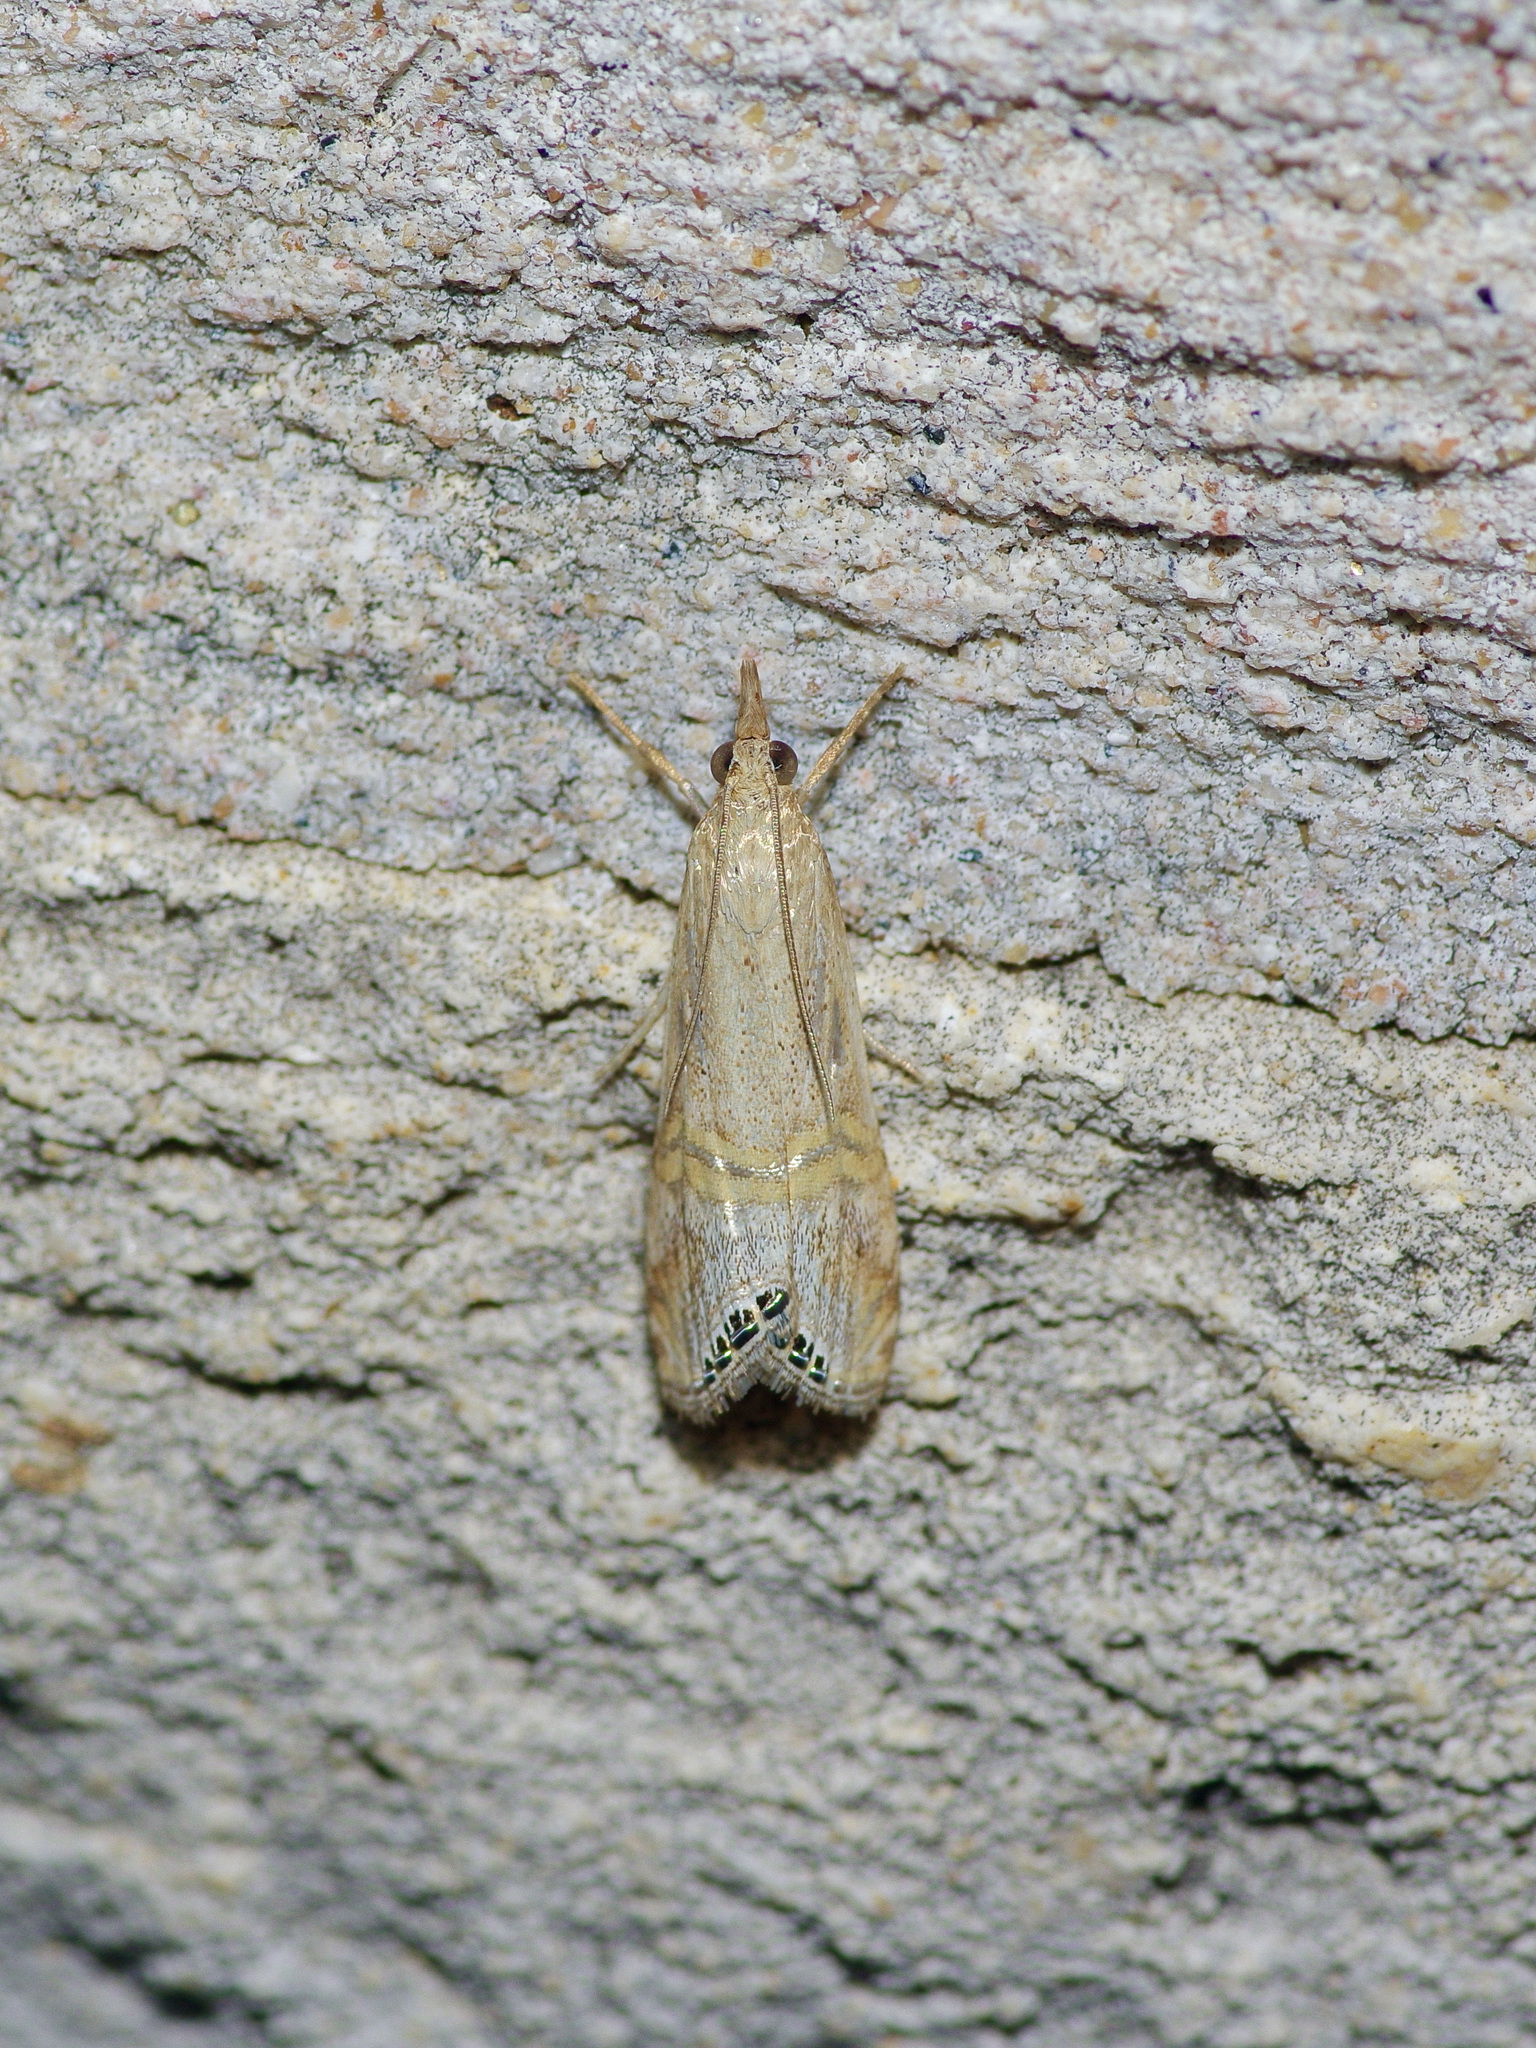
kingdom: Animalia
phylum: Arthropoda
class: Insecta
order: Lepidoptera
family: Crambidae
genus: Euchromius
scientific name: Euchromius ocellea
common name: Necklace veneer moth
